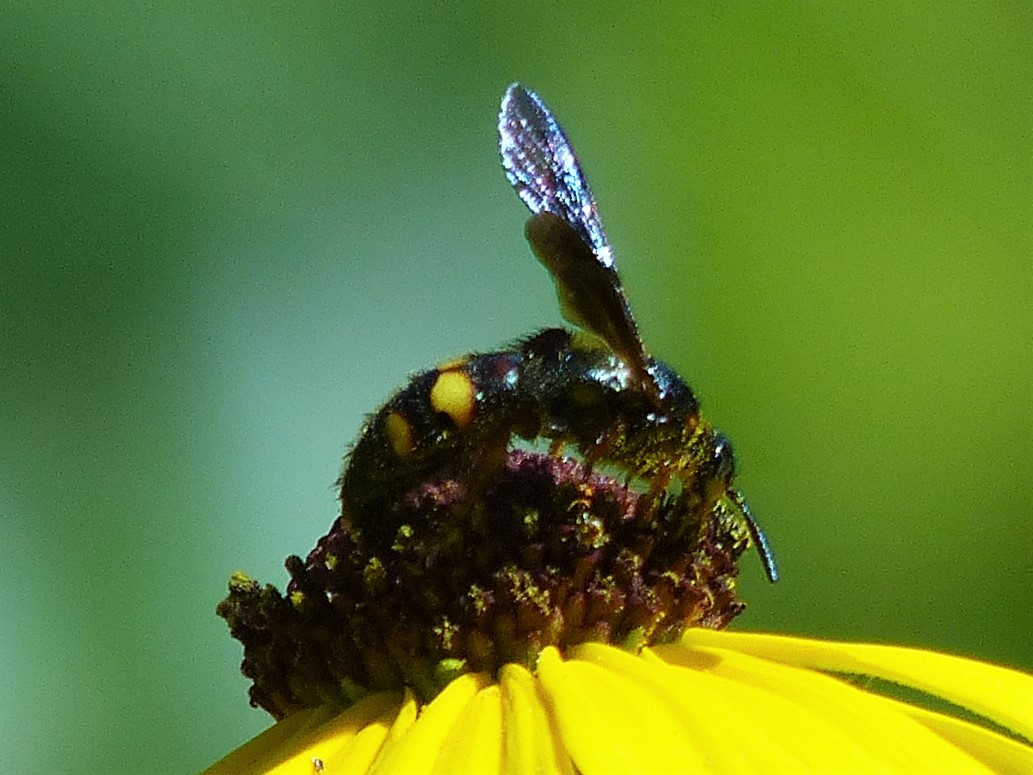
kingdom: Animalia
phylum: Arthropoda
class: Insecta
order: Hymenoptera
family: Scoliidae
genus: Scolia
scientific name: Scolia nobilitata
